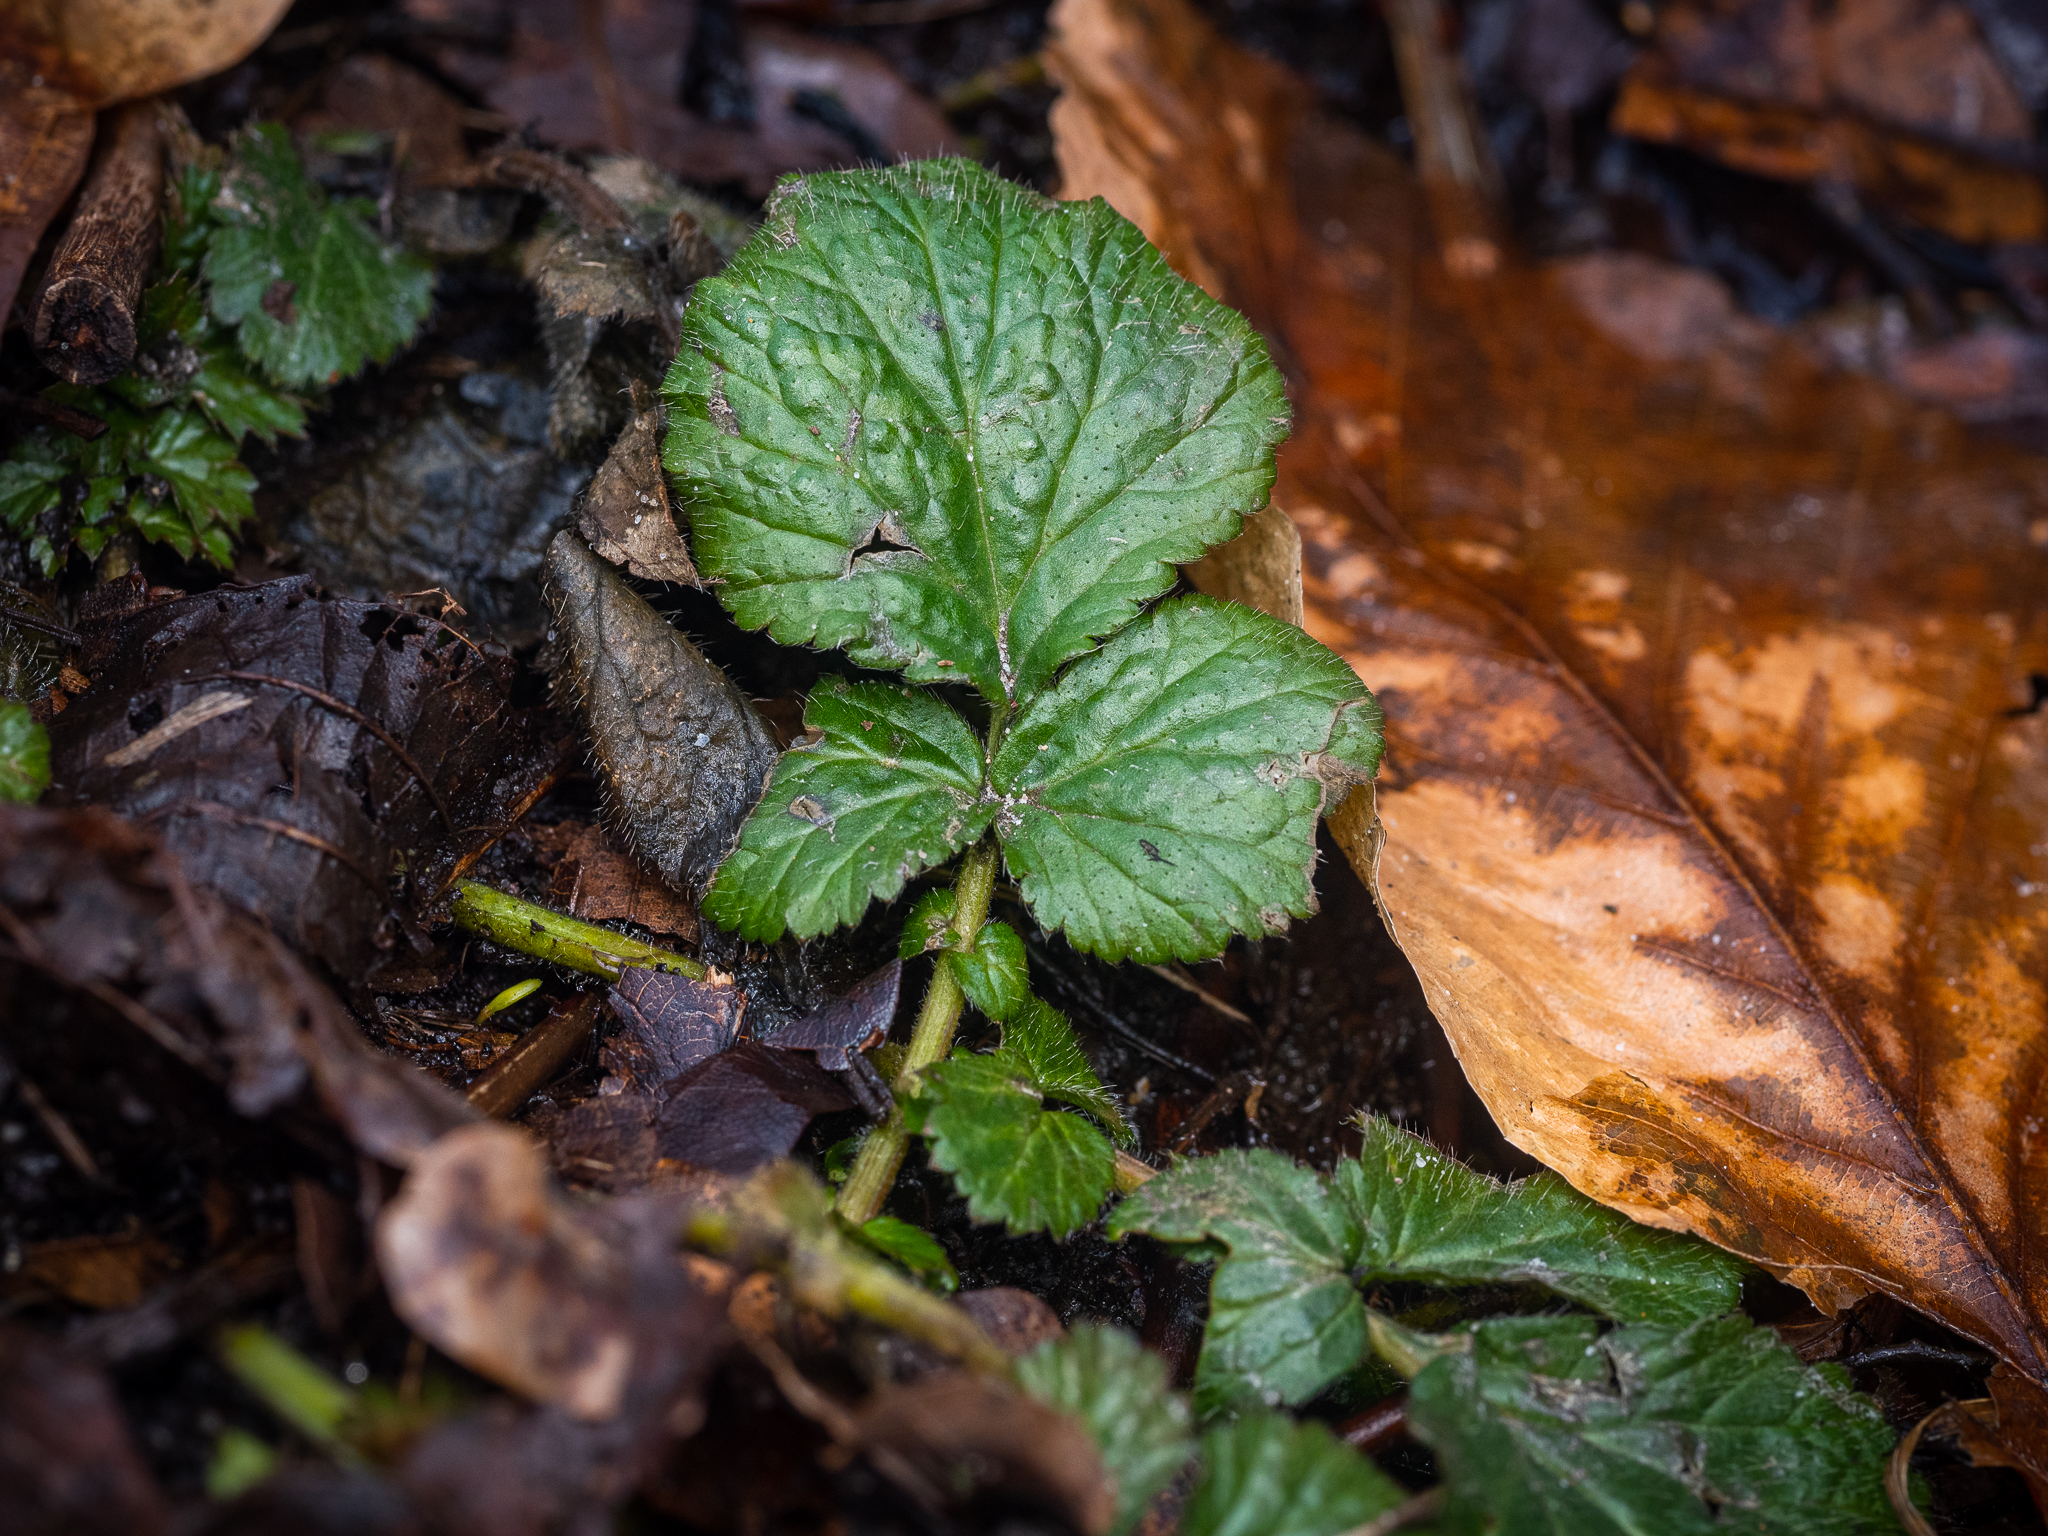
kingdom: Plantae
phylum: Tracheophyta
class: Magnoliopsida
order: Rosales
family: Rosaceae
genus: Geum
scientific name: Geum urbanum
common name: Wood avens
